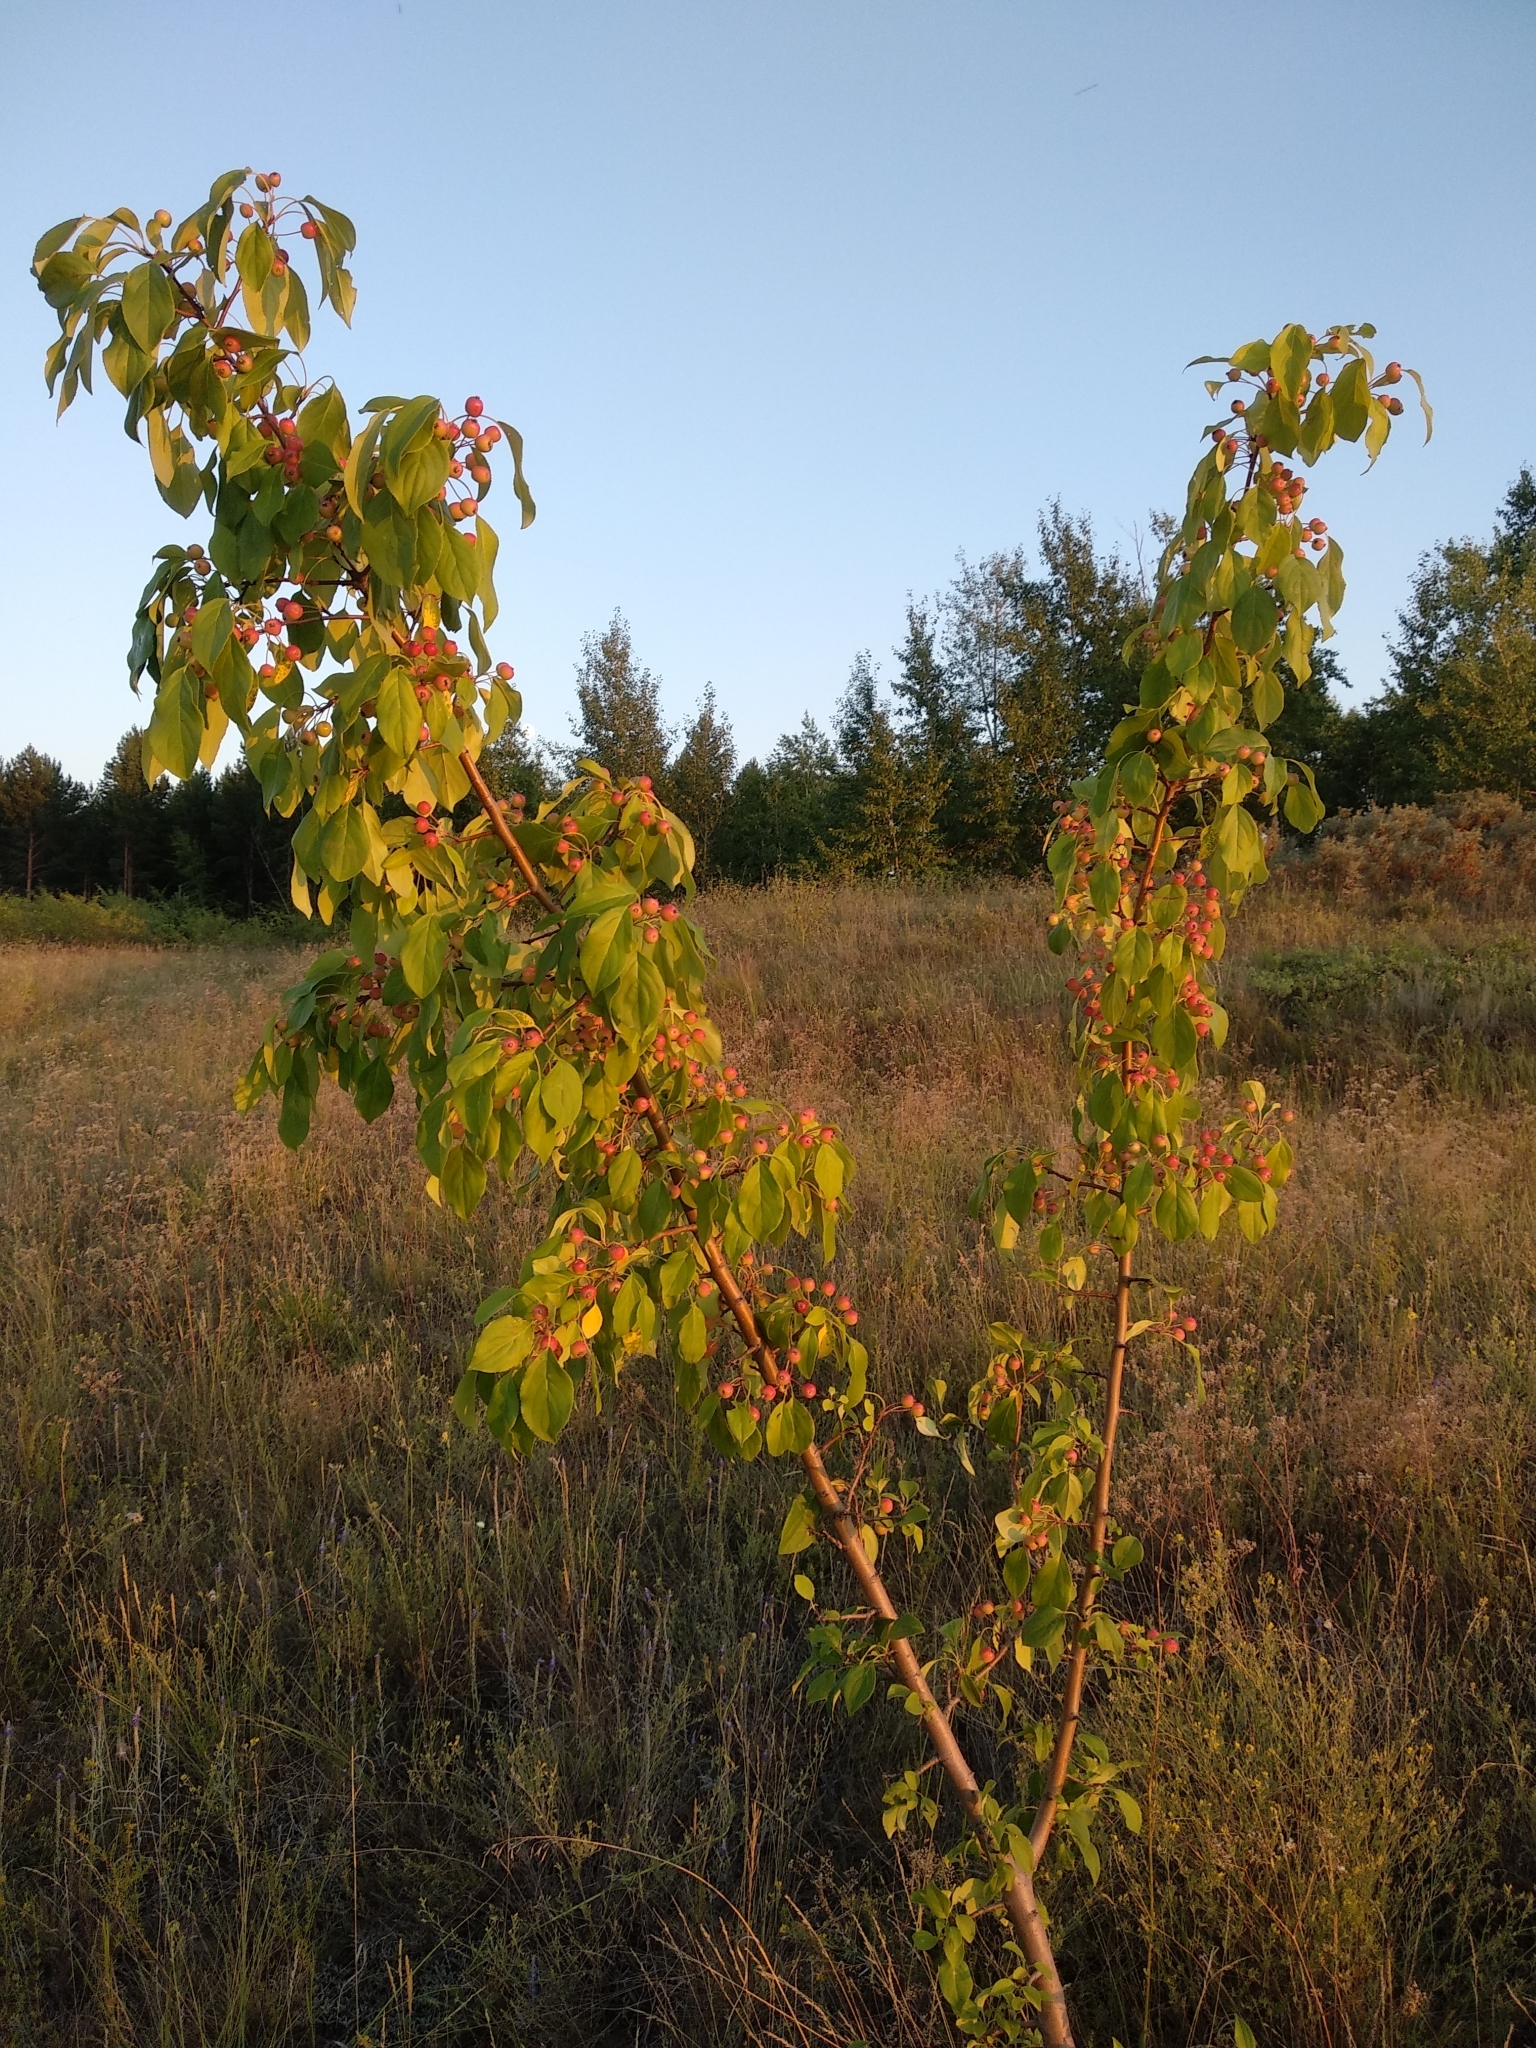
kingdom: Plantae
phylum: Tracheophyta
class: Magnoliopsida
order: Rosales
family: Rosaceae
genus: Malus
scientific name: Malus baccata
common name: Siberian crab
